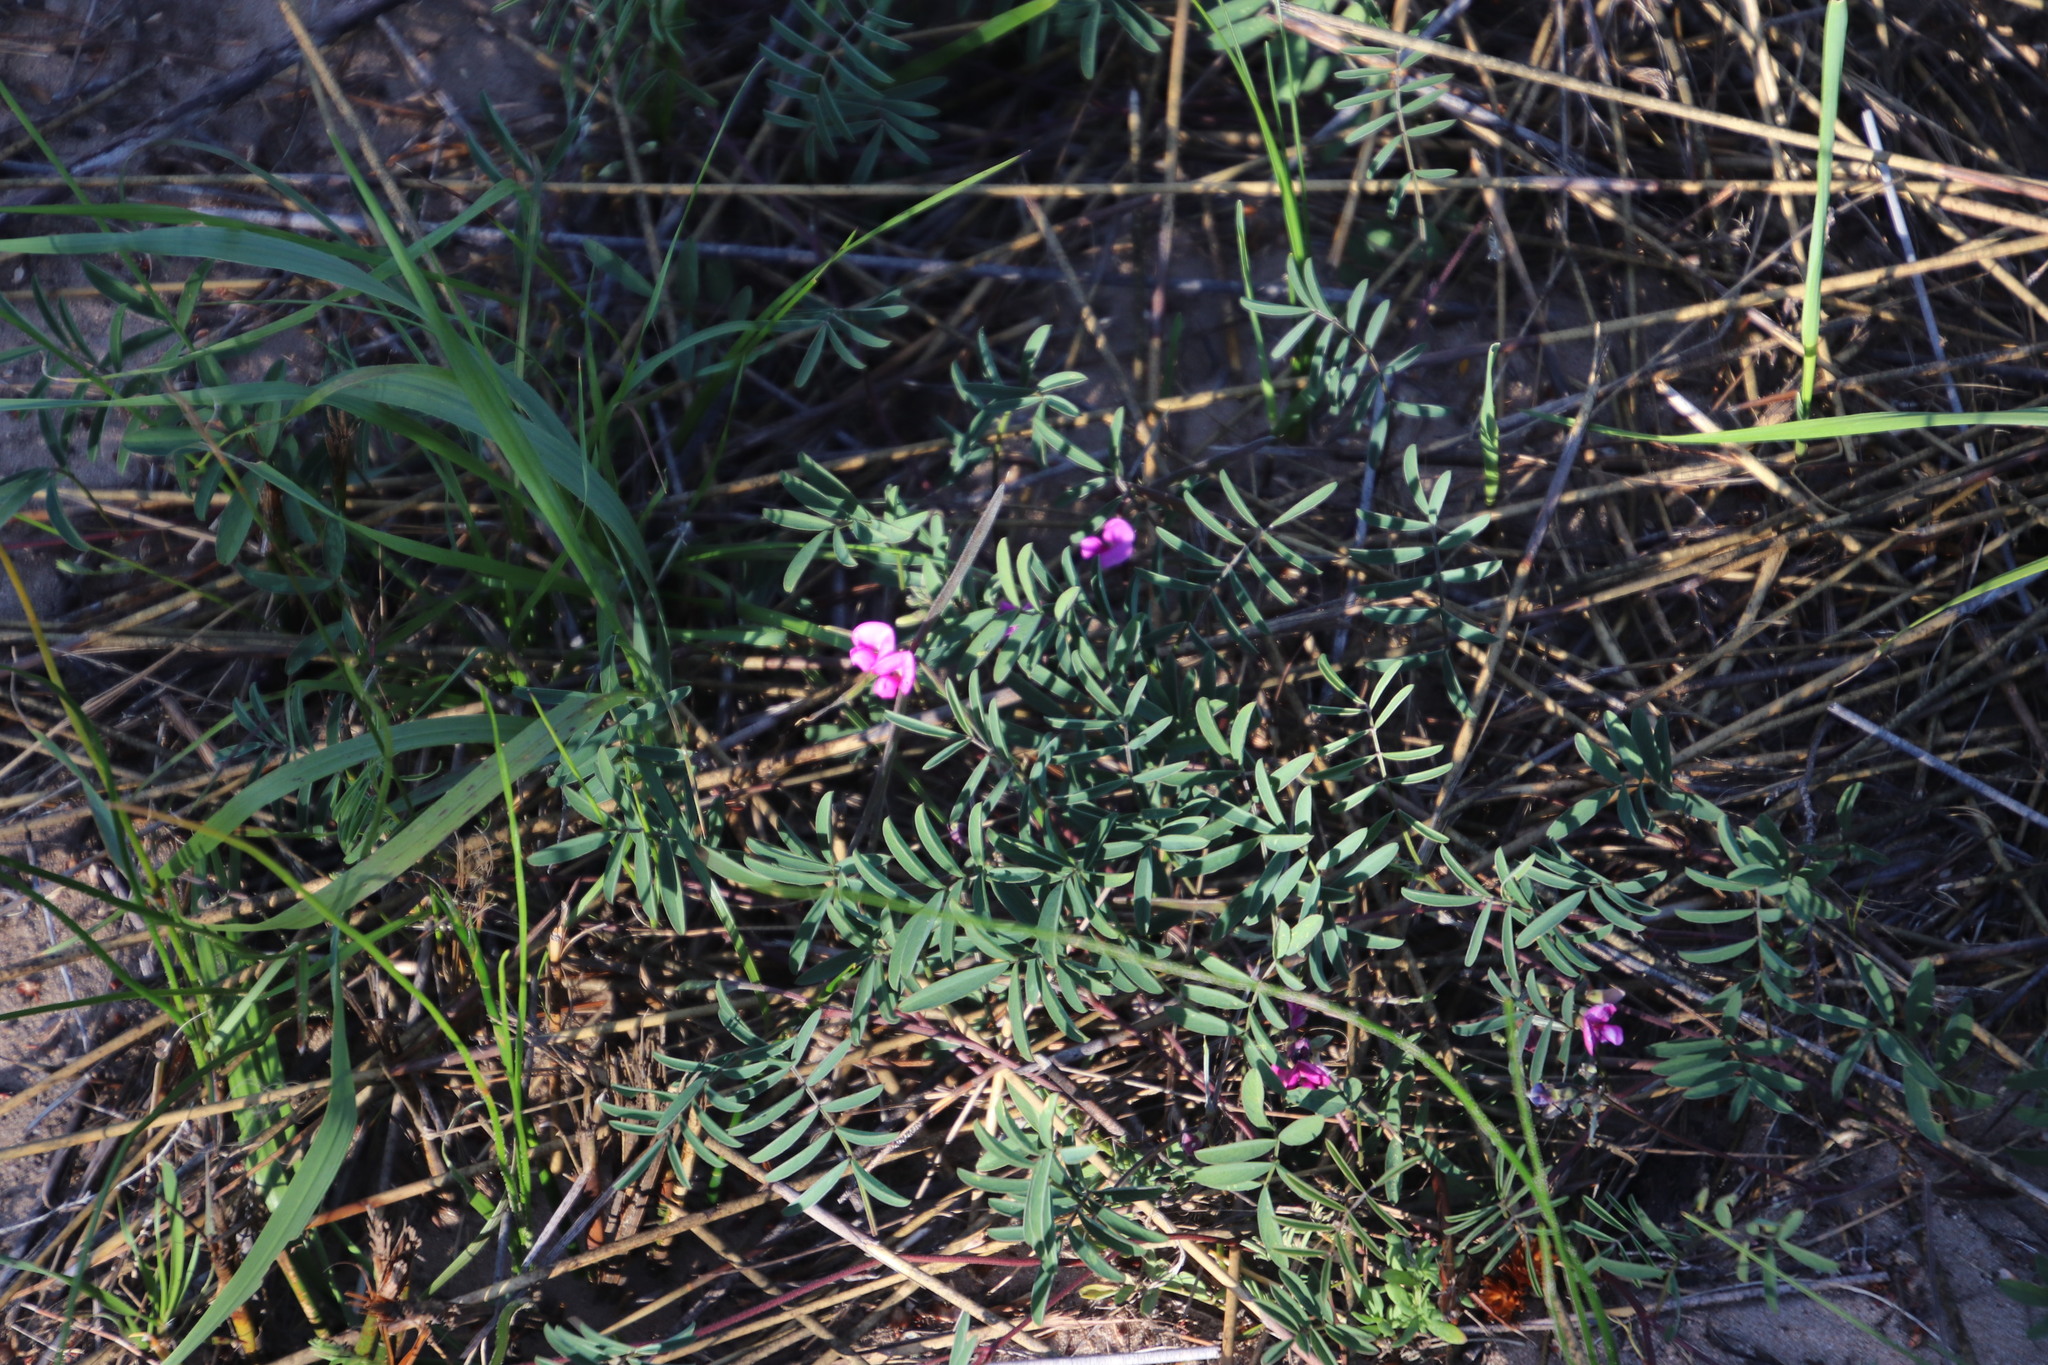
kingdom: Plantae
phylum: Tracheophyta
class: Magnoliopsida
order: Fabales
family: Fabaceae
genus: Tephrosia
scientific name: Tephrosia capensis
